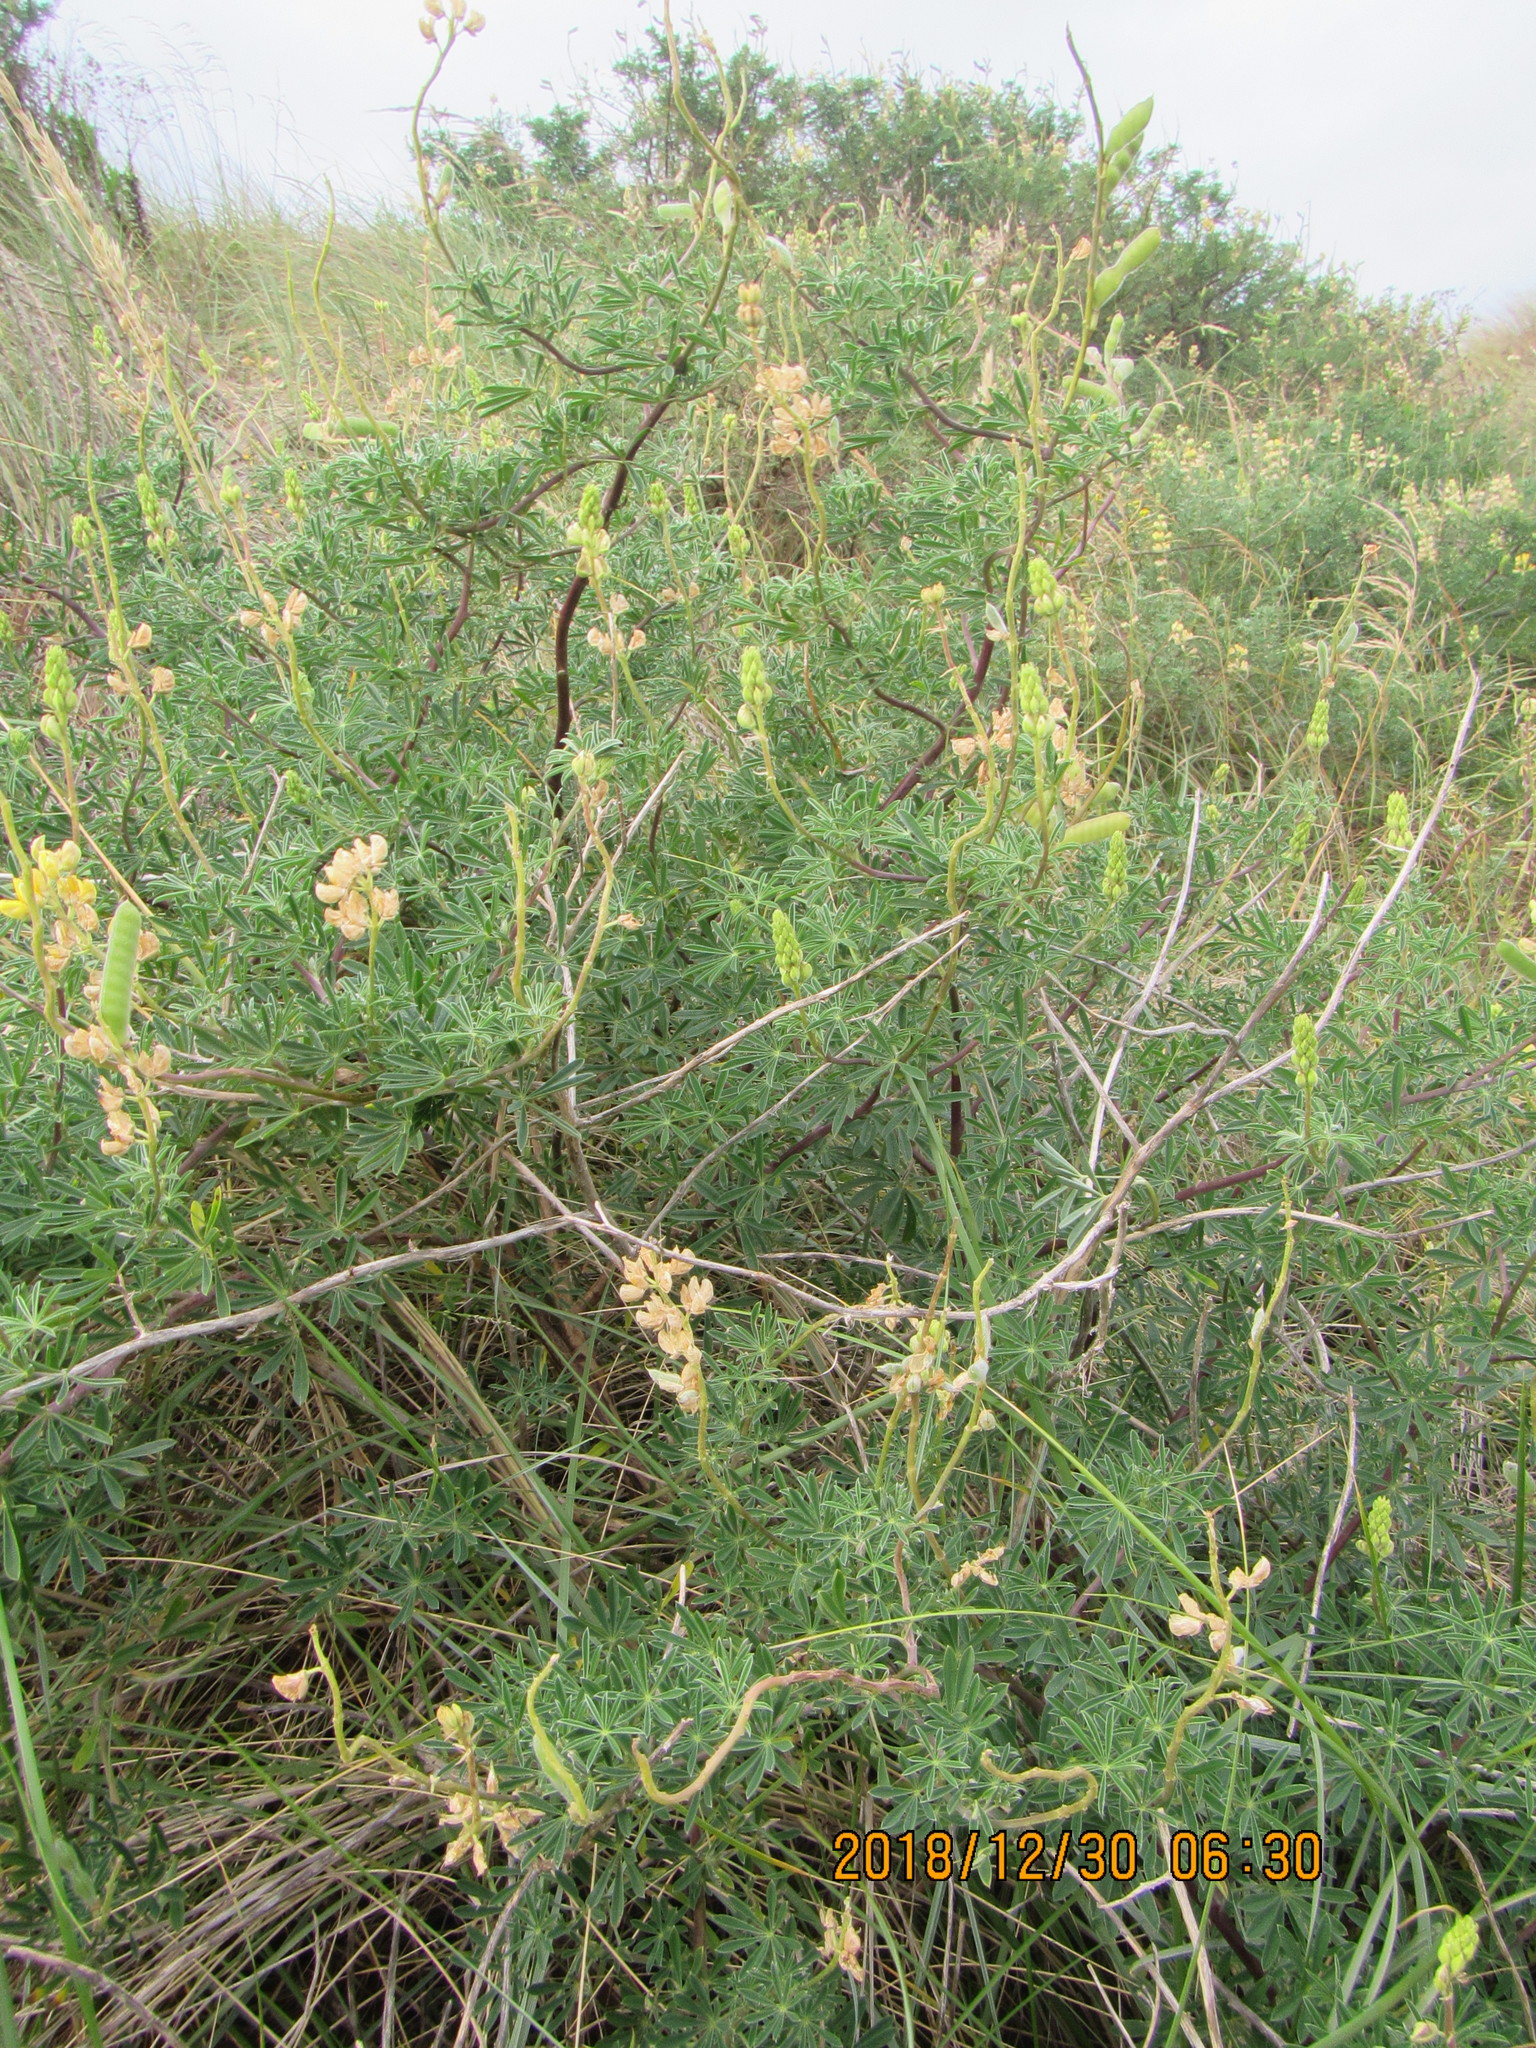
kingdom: Plantae
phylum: Tracheophyta
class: Magnoliopsida
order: Fabales
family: Fabaceae
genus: Lupinus
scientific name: Lupinus arboreus
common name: Yellow bush lupine
